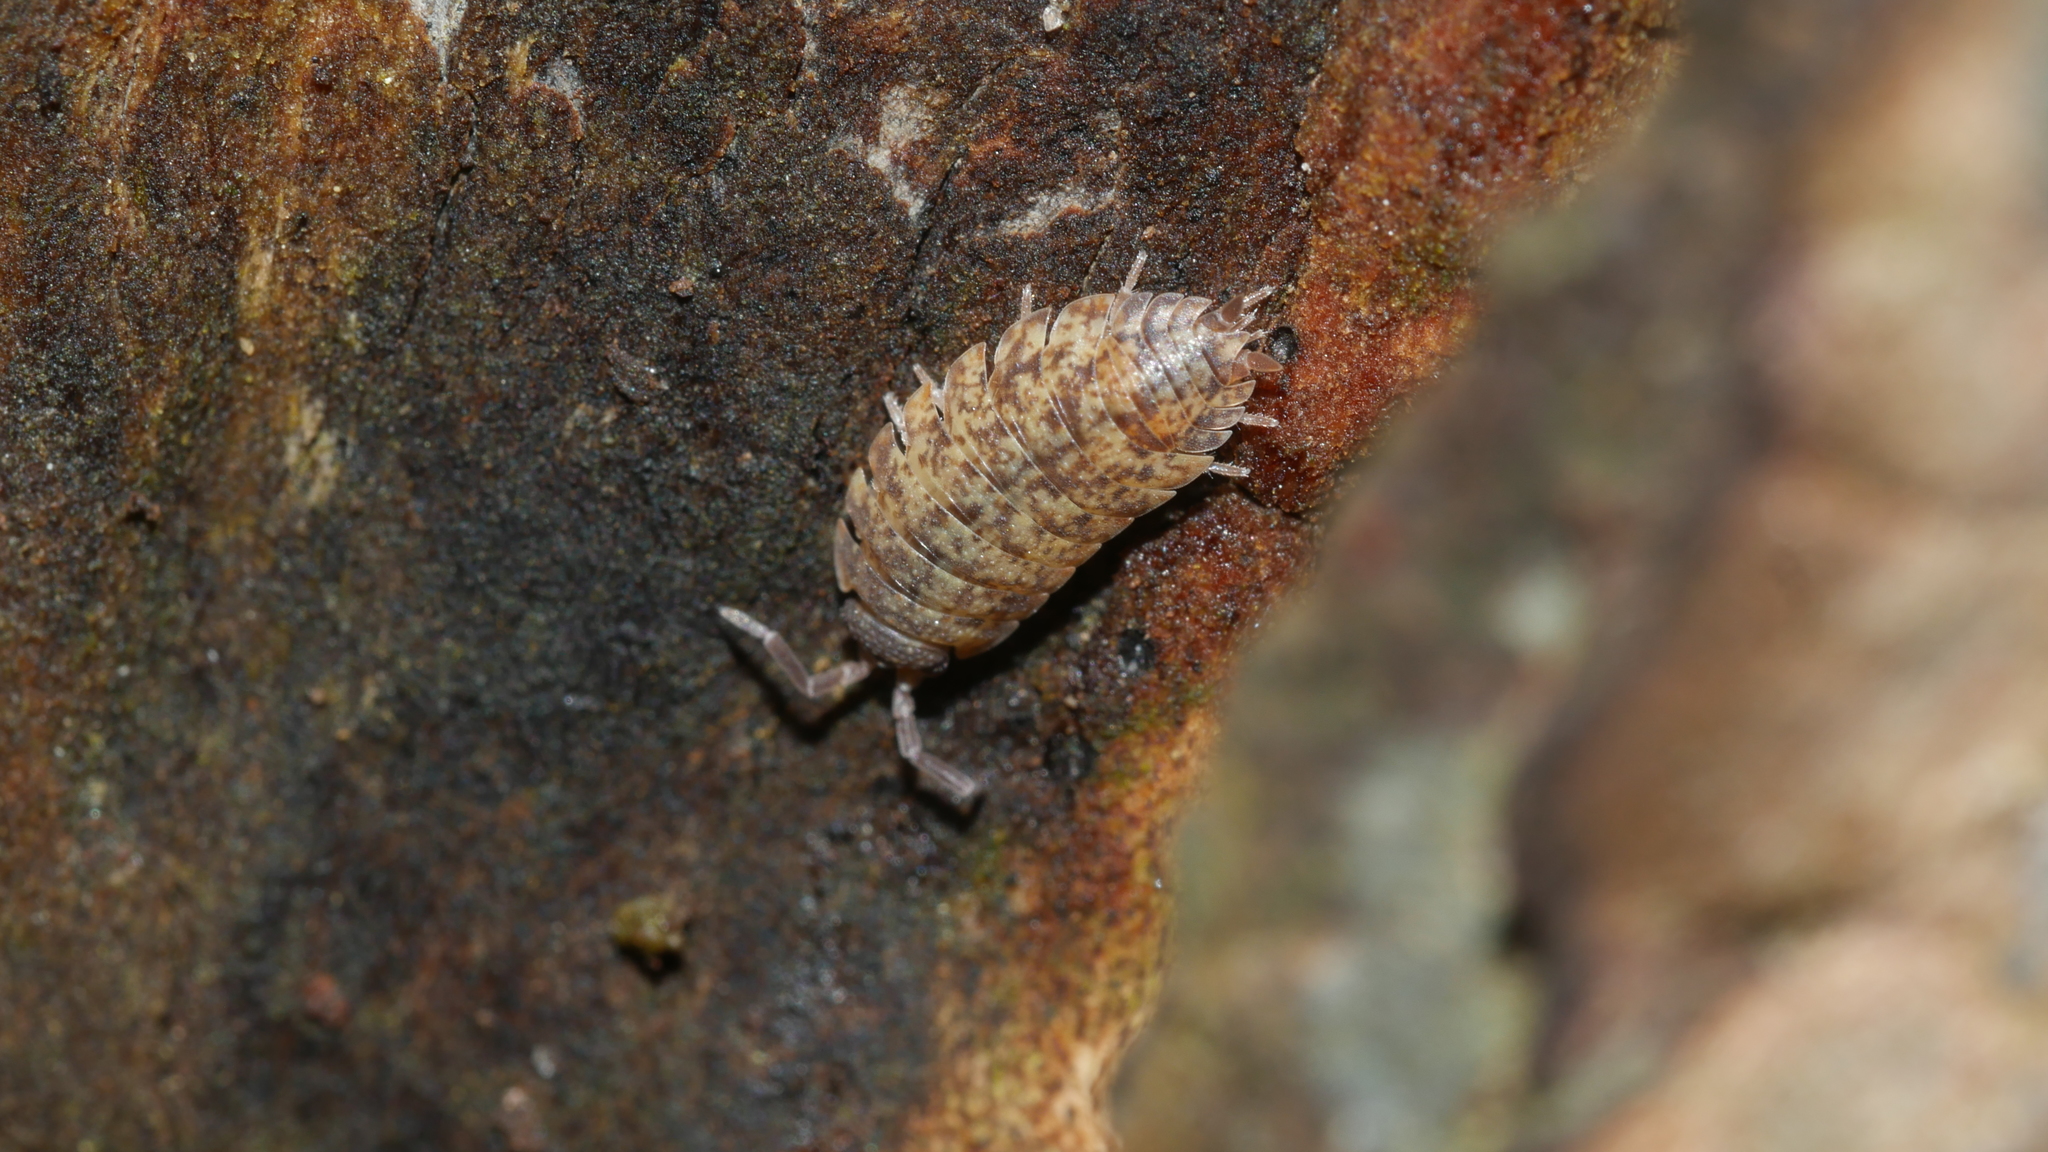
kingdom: Animalia
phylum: Arthropoda
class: Malacostraca
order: Isopoda
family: Porcellionidae
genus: Porcellio
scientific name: Porcellio scaber
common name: Common rough woodlouse
